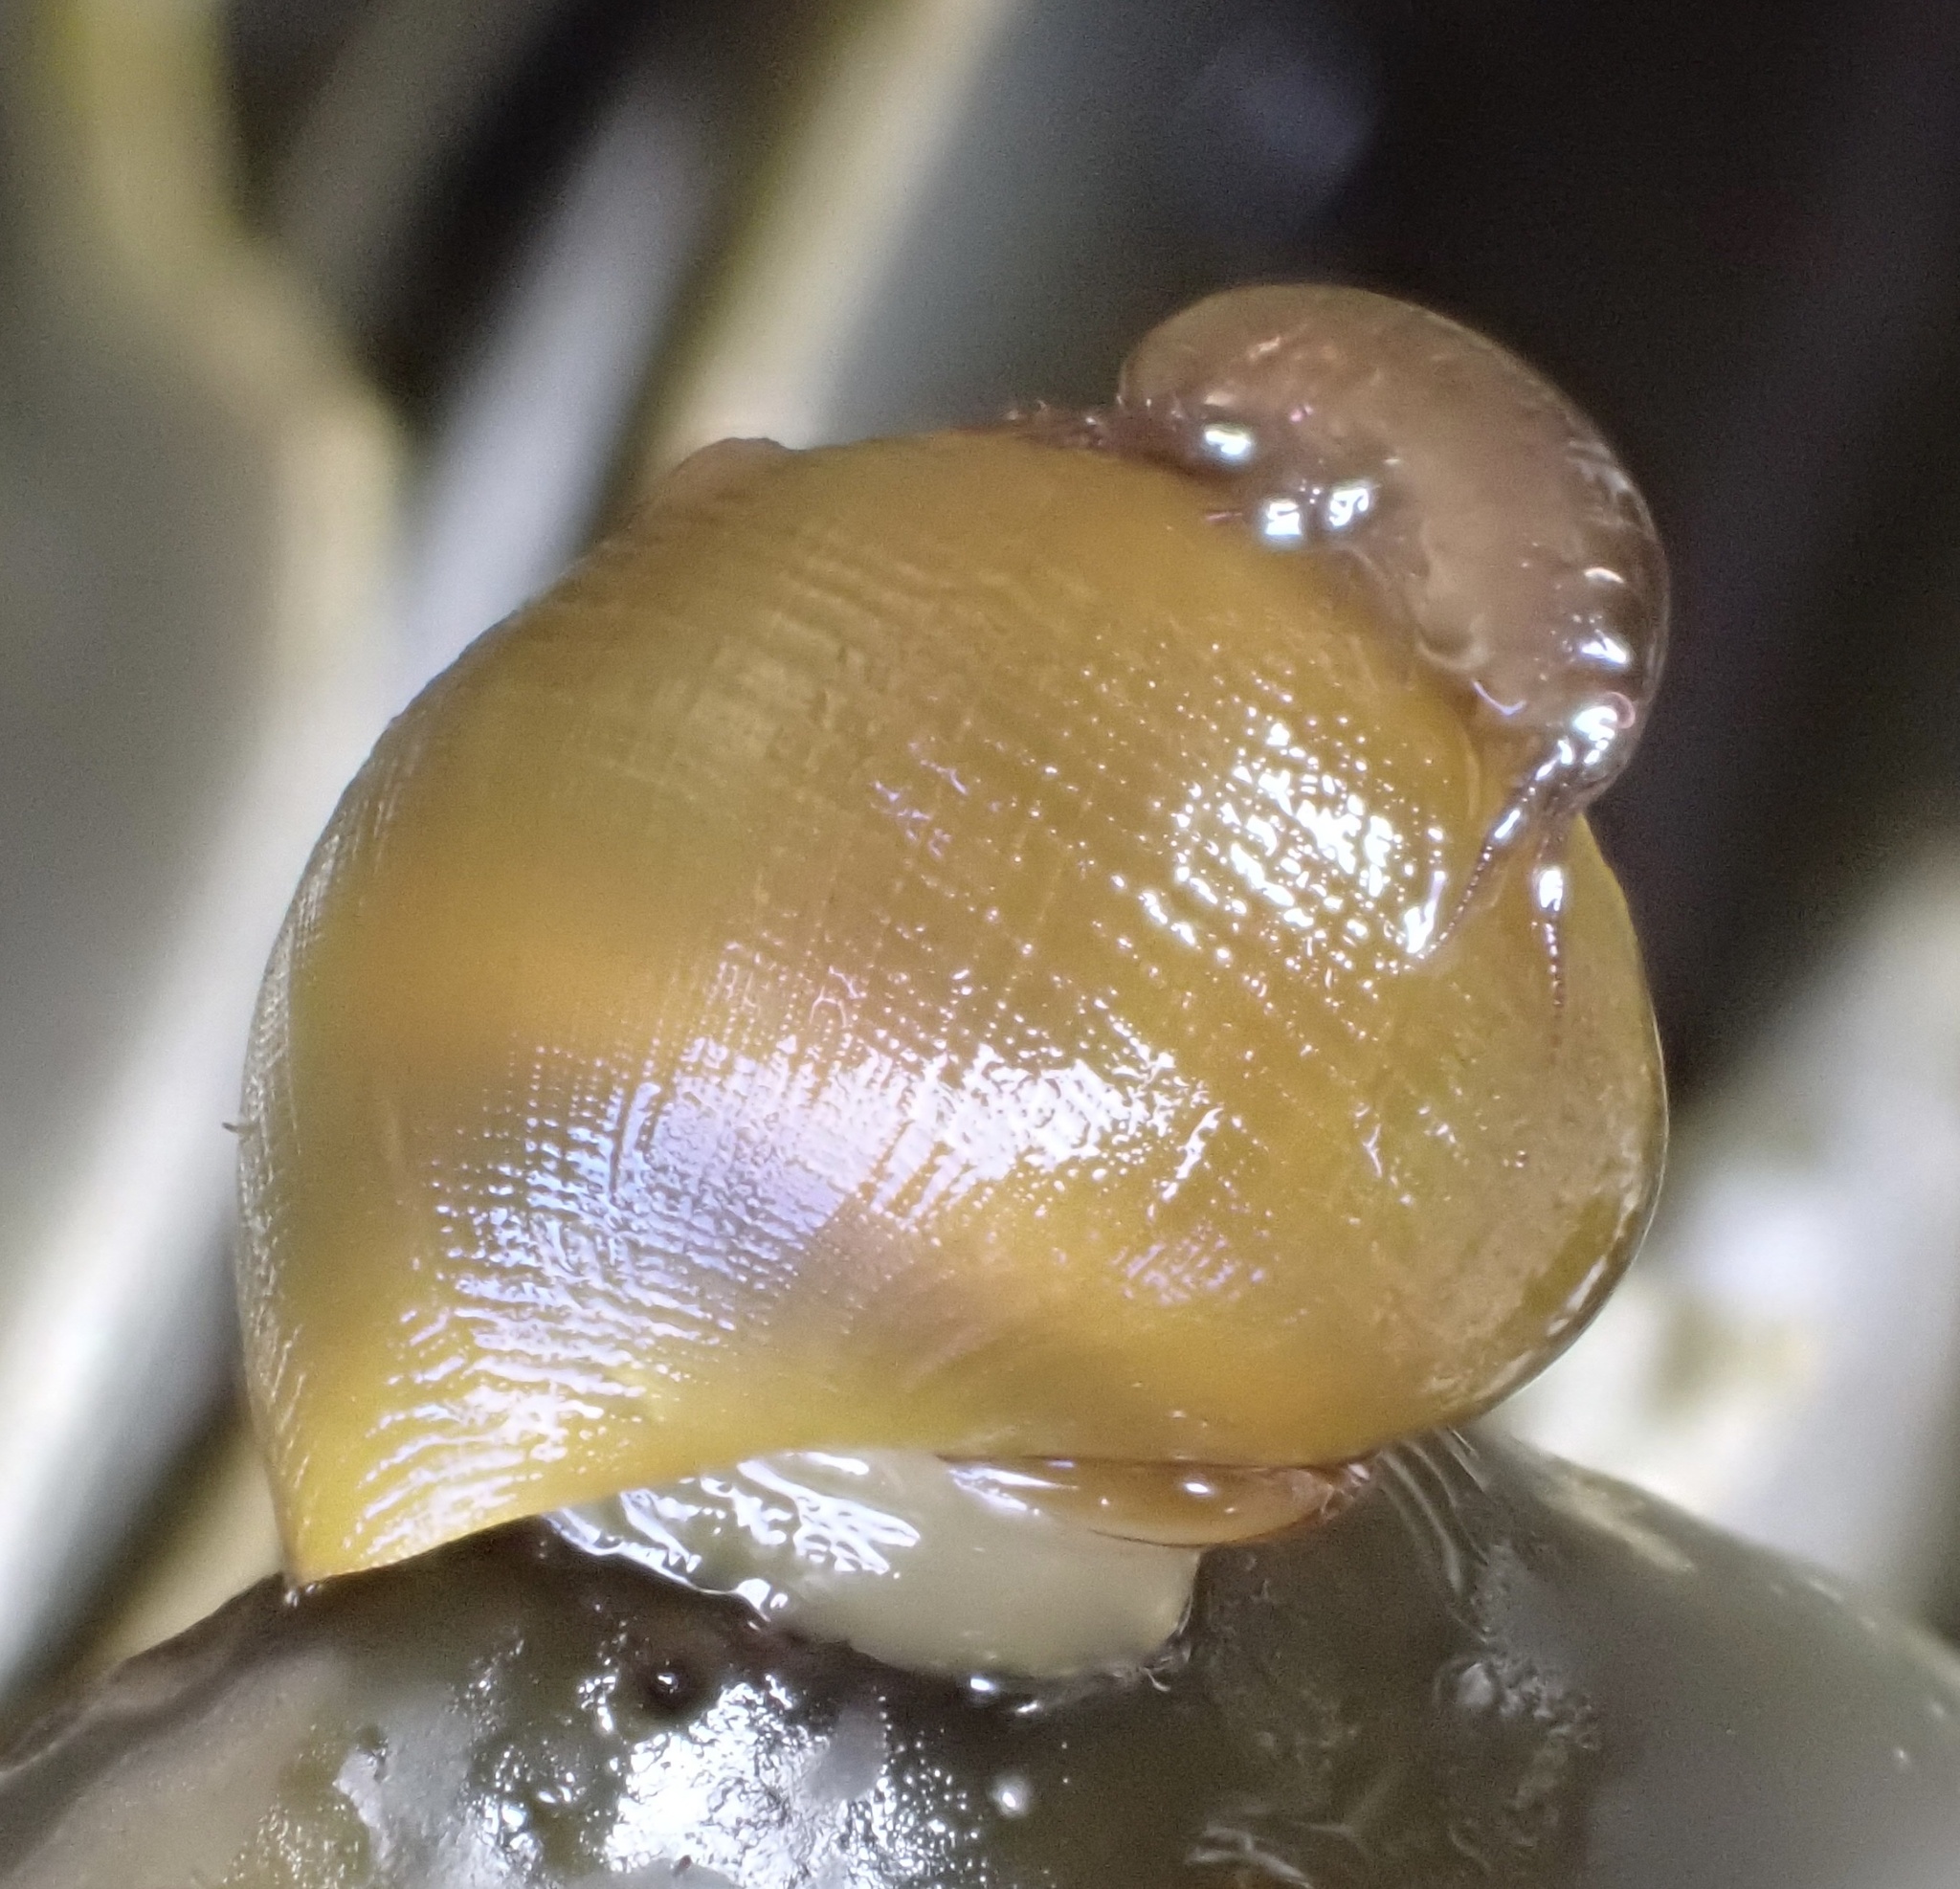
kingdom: Animalia
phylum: Mollusca
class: Gastropoda
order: Littorinimorpha
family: Littorinidae
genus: Littorina
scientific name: Littorina
